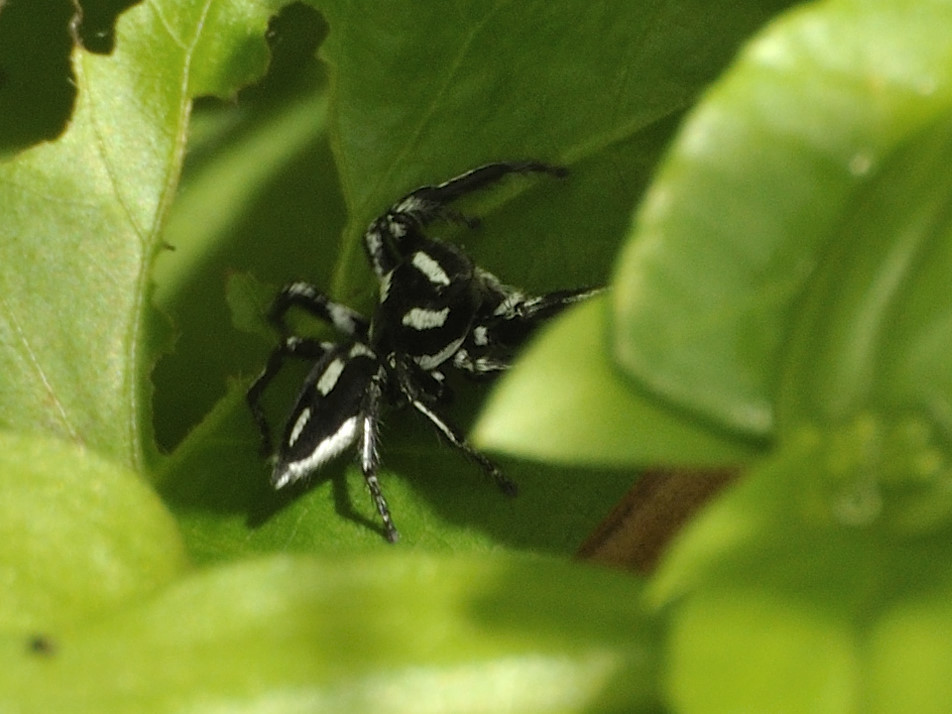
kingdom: Animalia
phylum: Arthropoda
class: Arachnida
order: Araneae
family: Salticidae
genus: Hyllus
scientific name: Hyllus argyrotoxus
